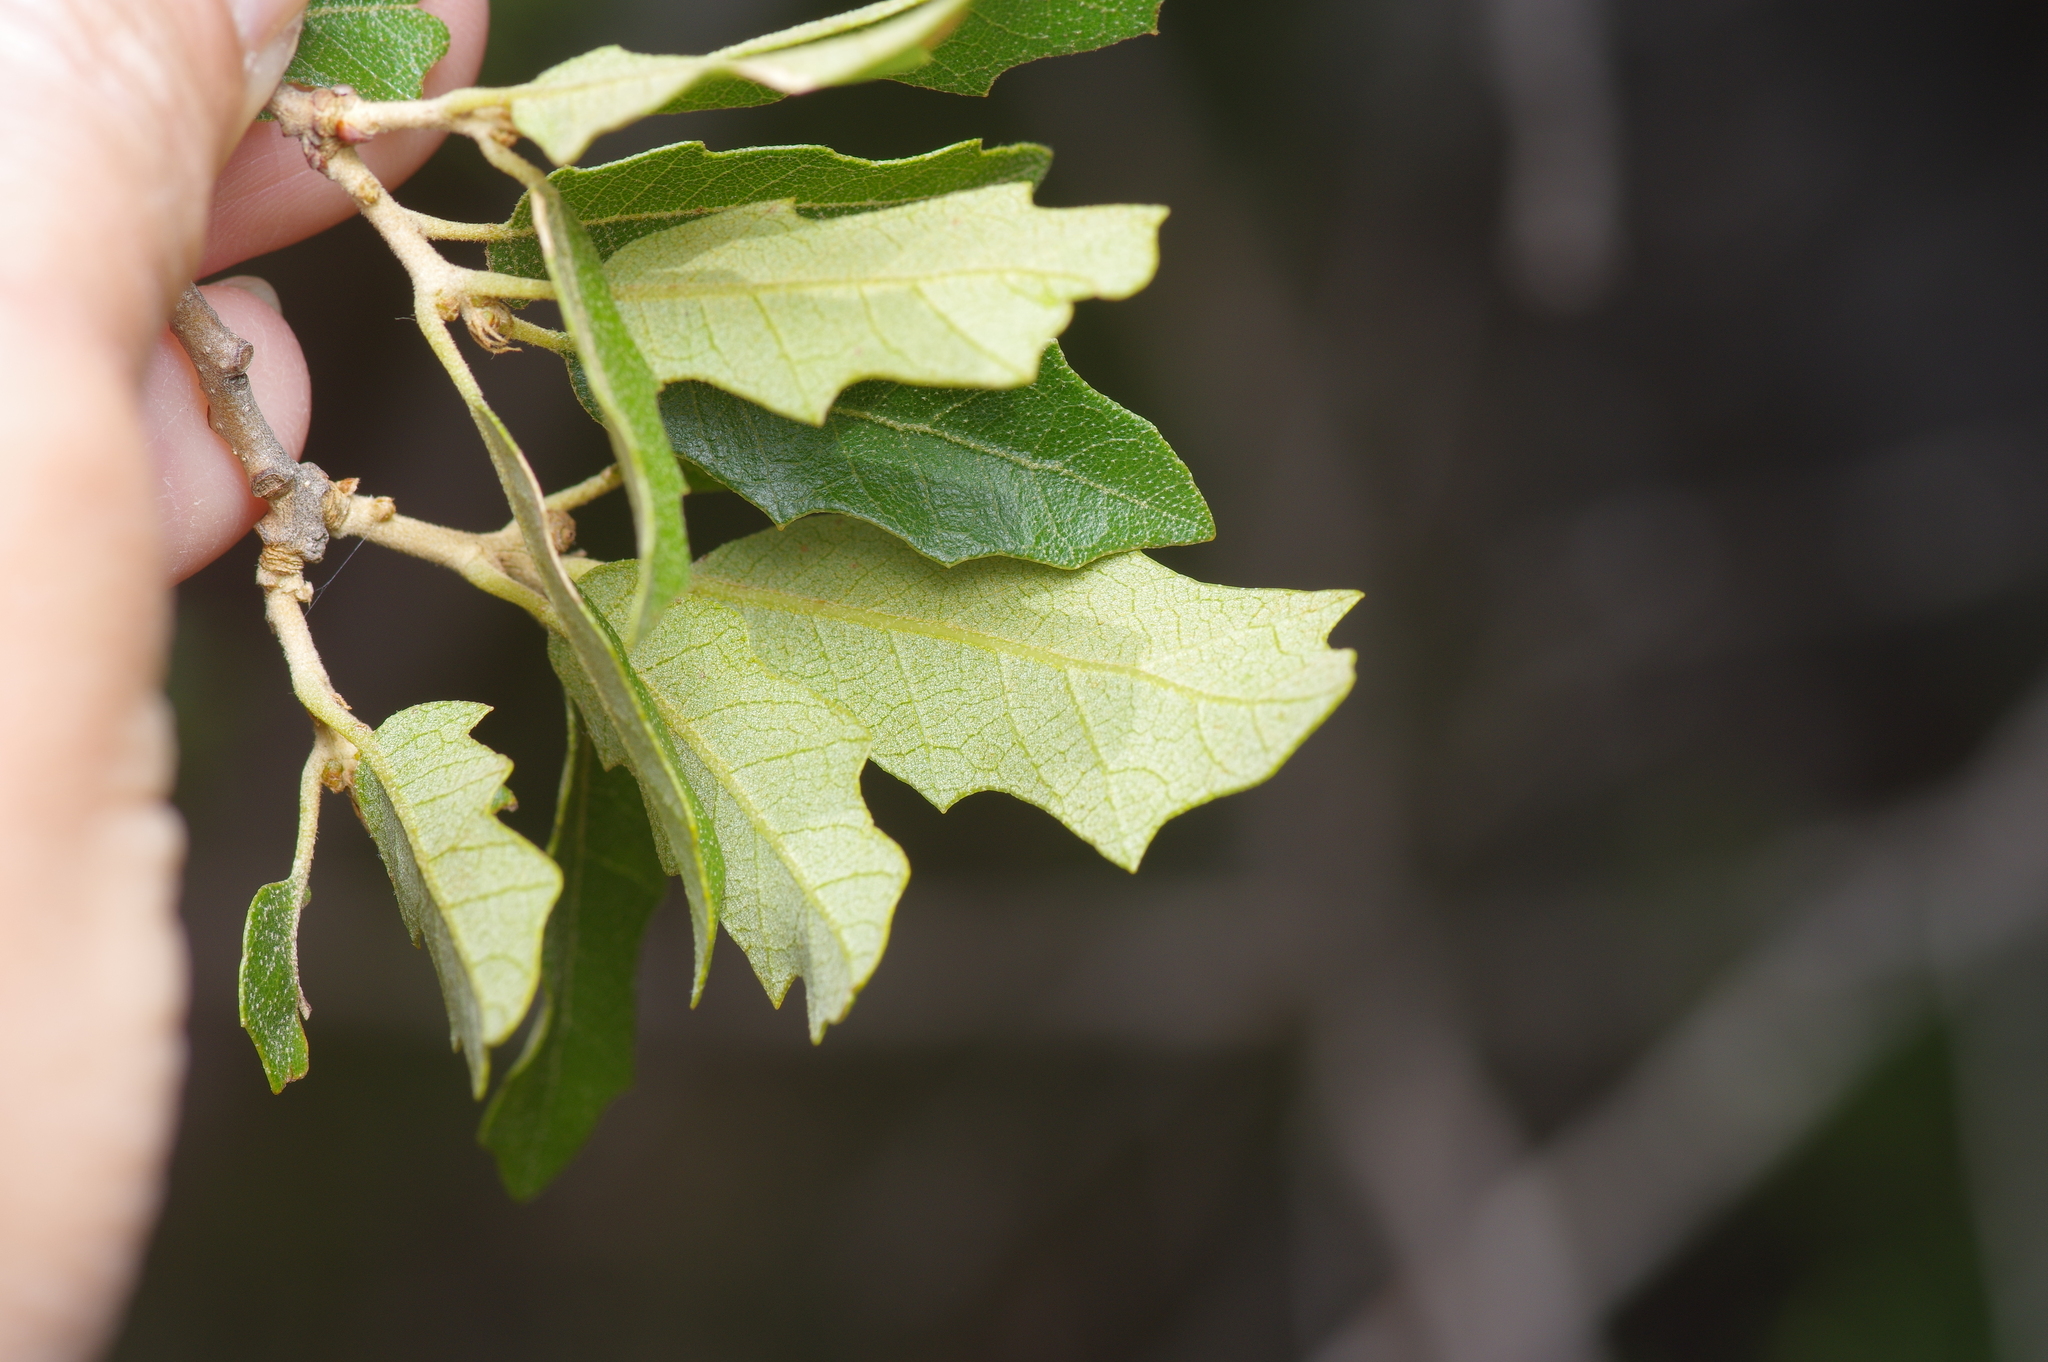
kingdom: Plantae
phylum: Tracheophyta
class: Magnoliopsida
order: Fagales
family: Fagaceae
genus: Quercus
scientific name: Quercus vaseyana
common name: Sandpaper oak
